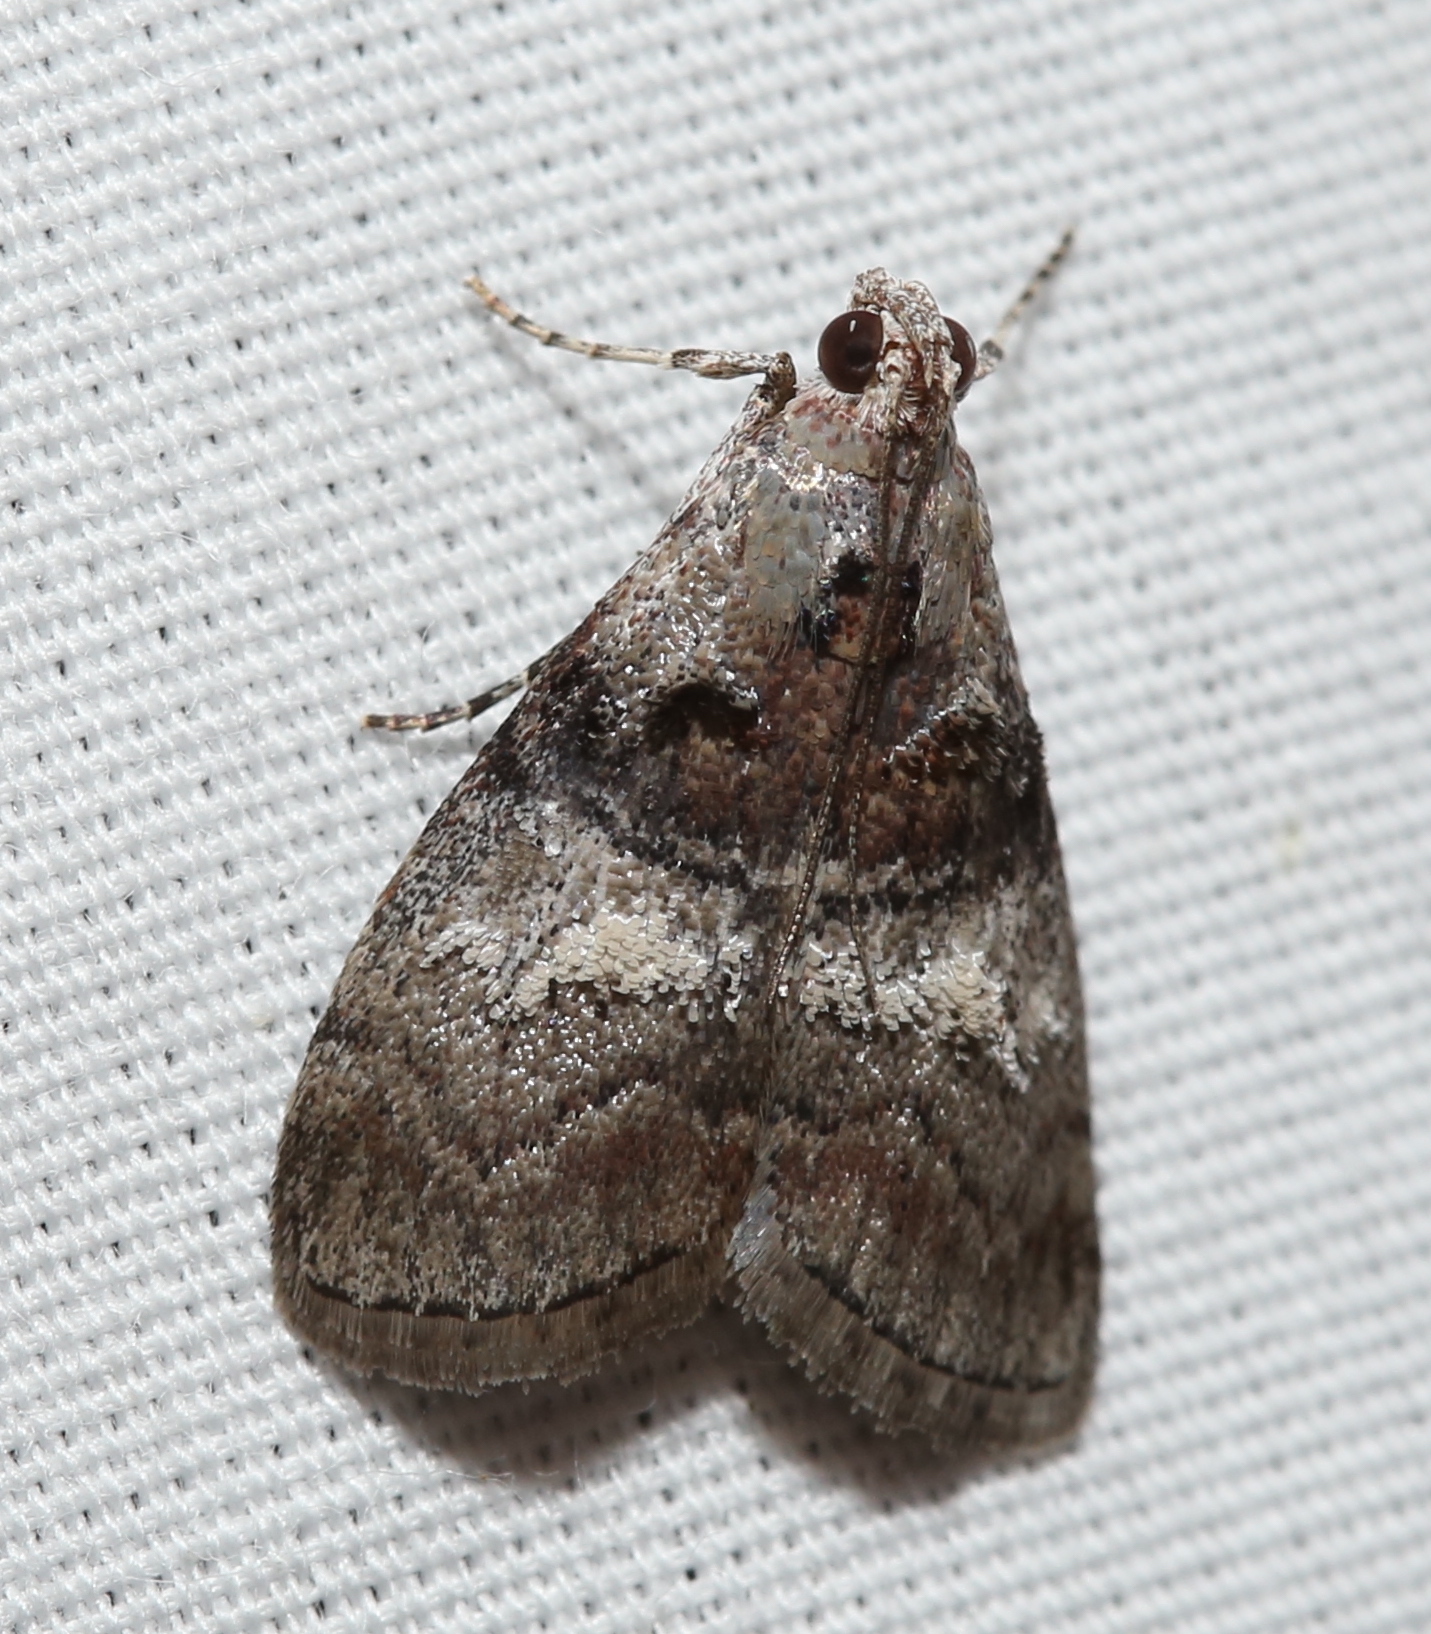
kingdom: Animalia
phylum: Arthropoda
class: Insecta
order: Lepidoptera
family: Pyralidae
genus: Pococera
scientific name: Pococera asperatella
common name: Maple webworm moth
